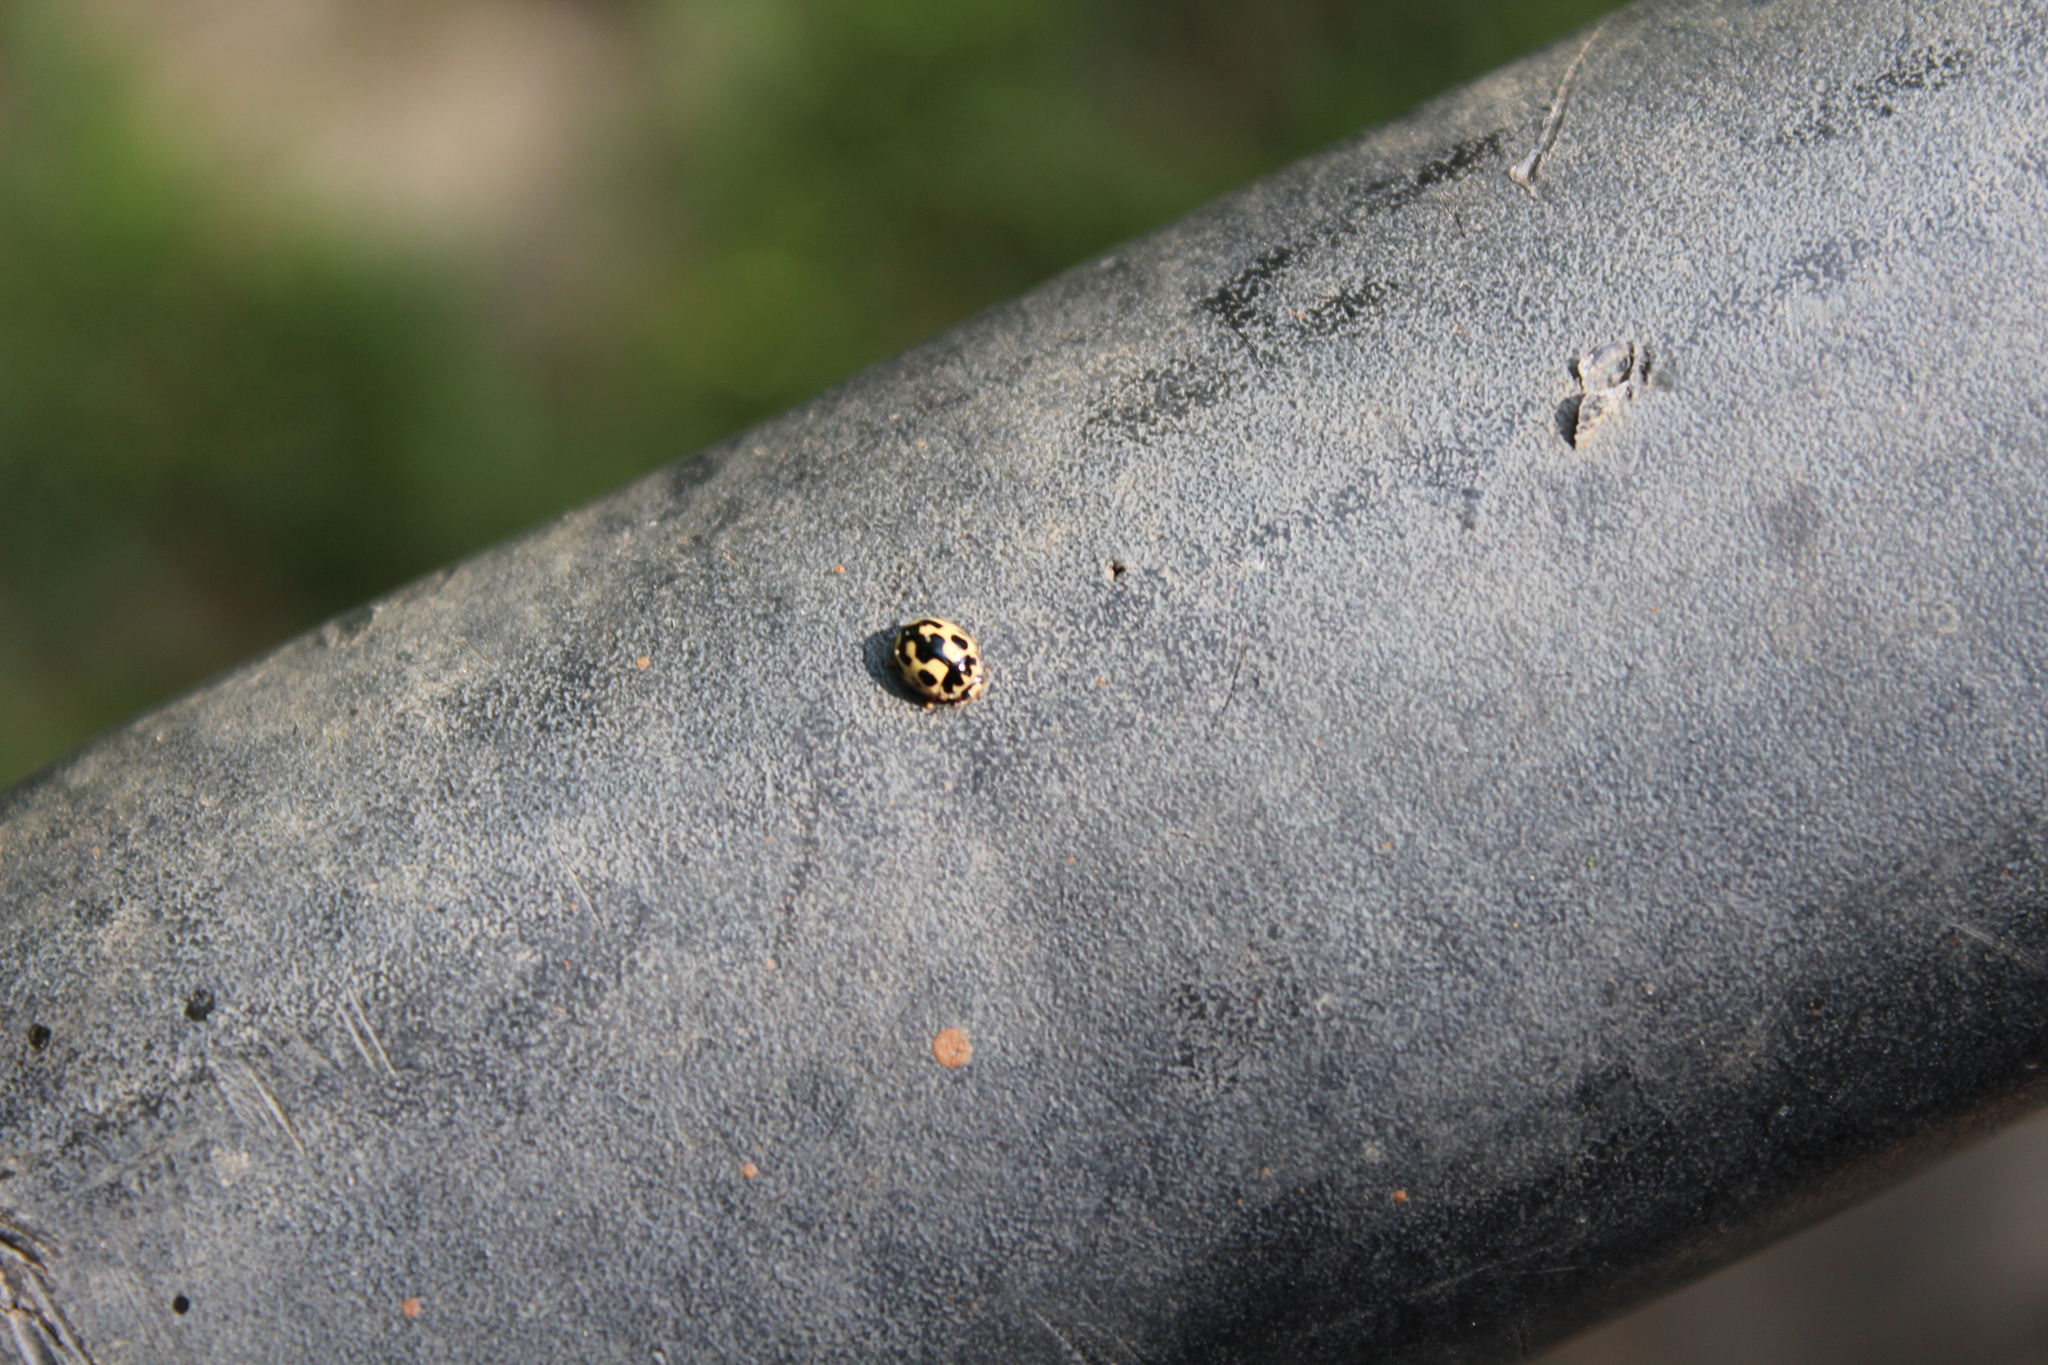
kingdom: Animalia
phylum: Arthropoda
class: Insecta
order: Coleoptera
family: Coccinellidae
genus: Propylaea
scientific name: Propylaea quatuordecimpunctata
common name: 14-spotted ladybird beetle
